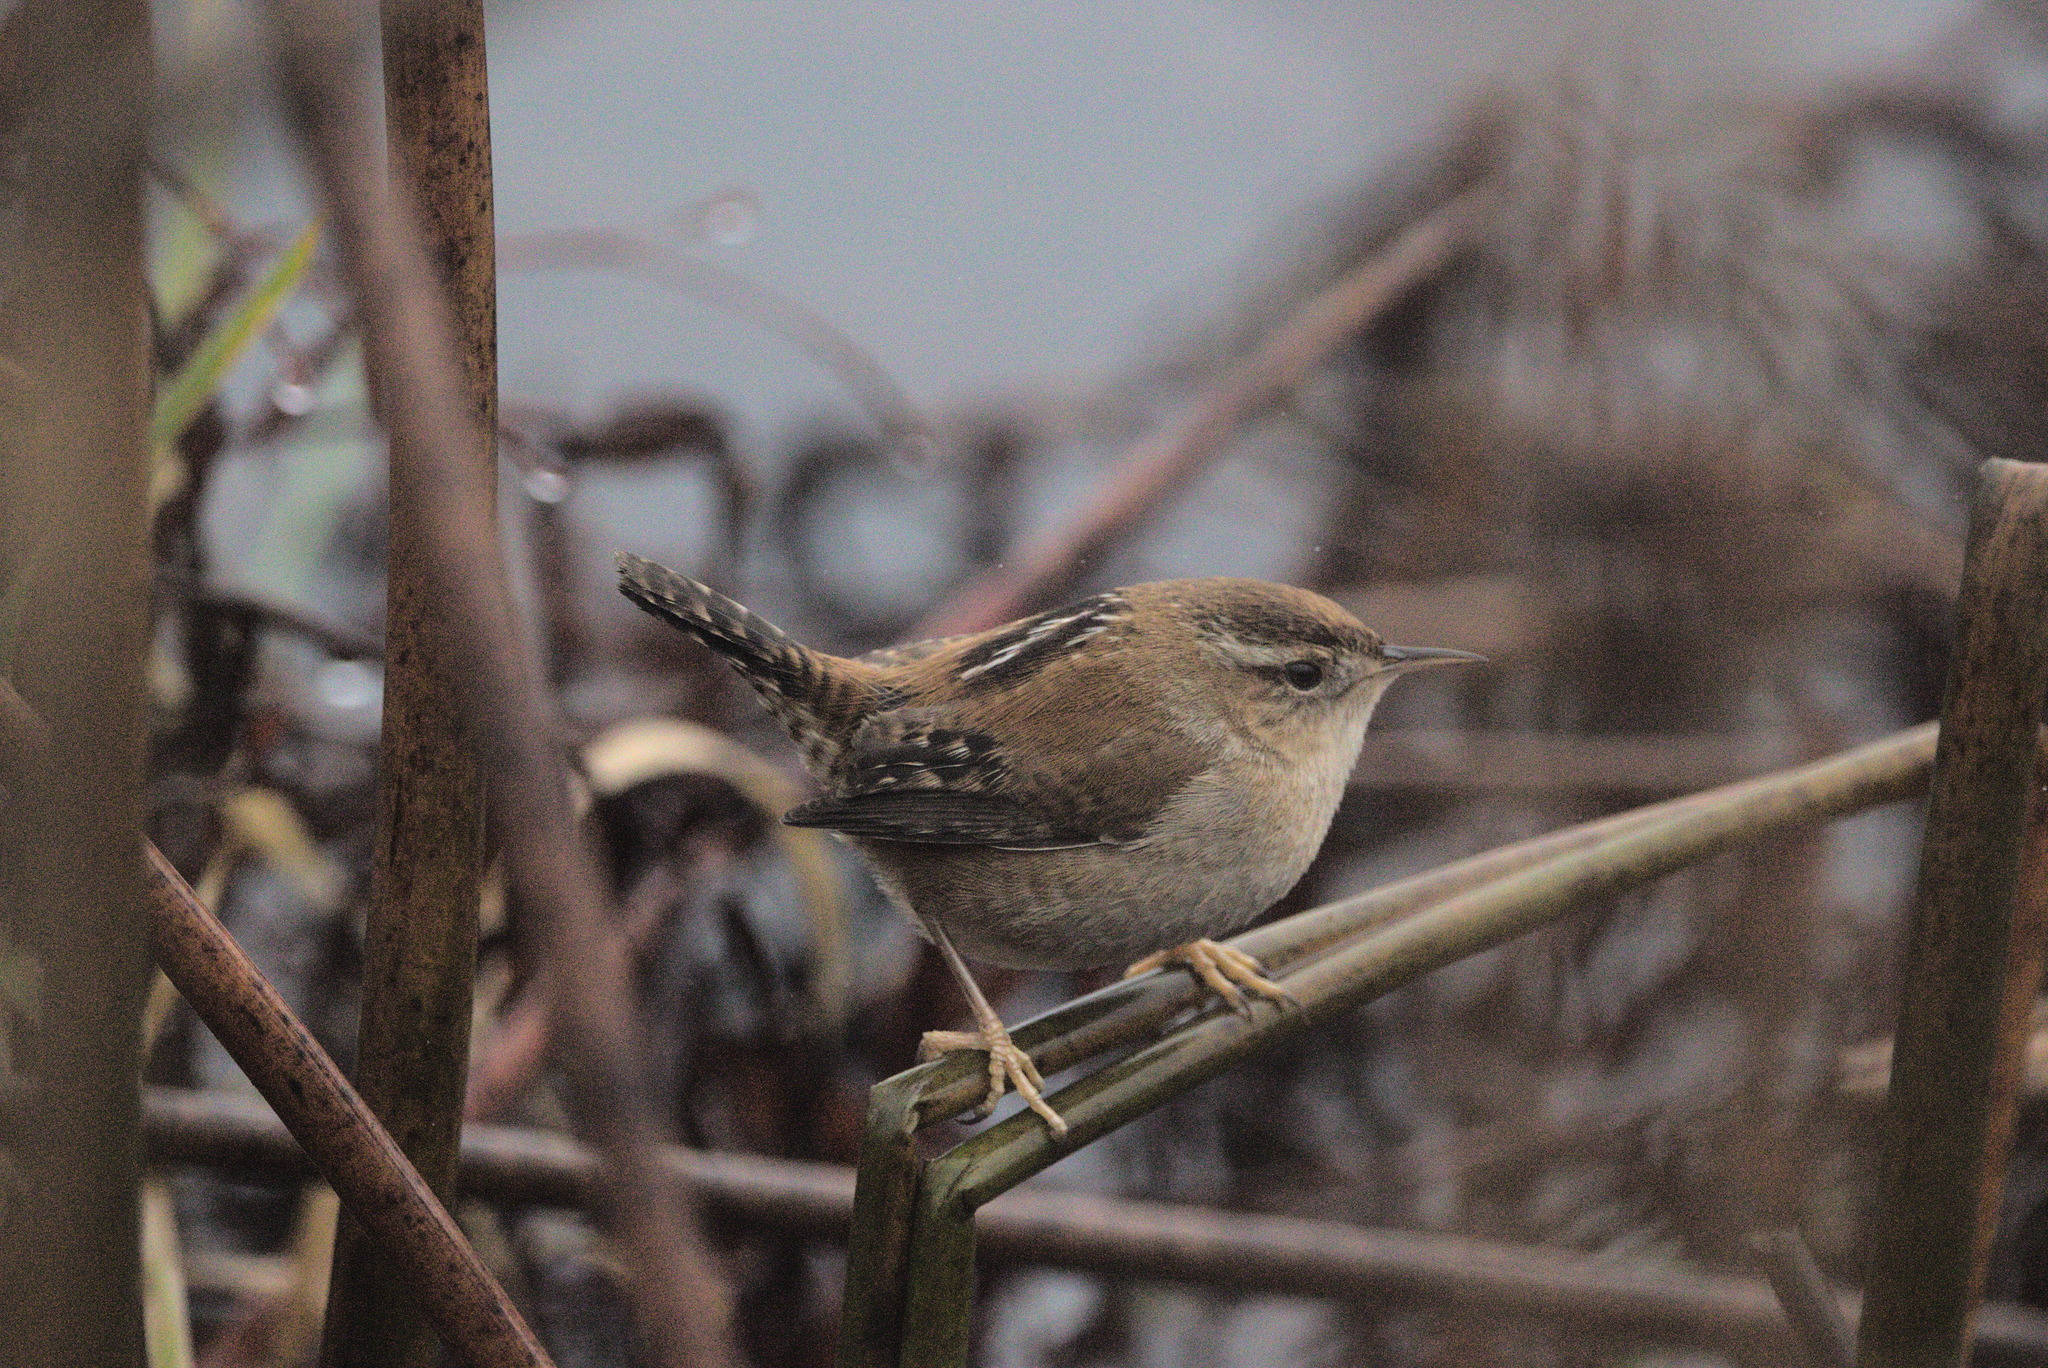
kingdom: Animalia
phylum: Chordata
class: Aves
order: Passeriformes
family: Troglodytidae
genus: Cistothorus
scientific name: Cistothorus palustris
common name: Marsh wren
